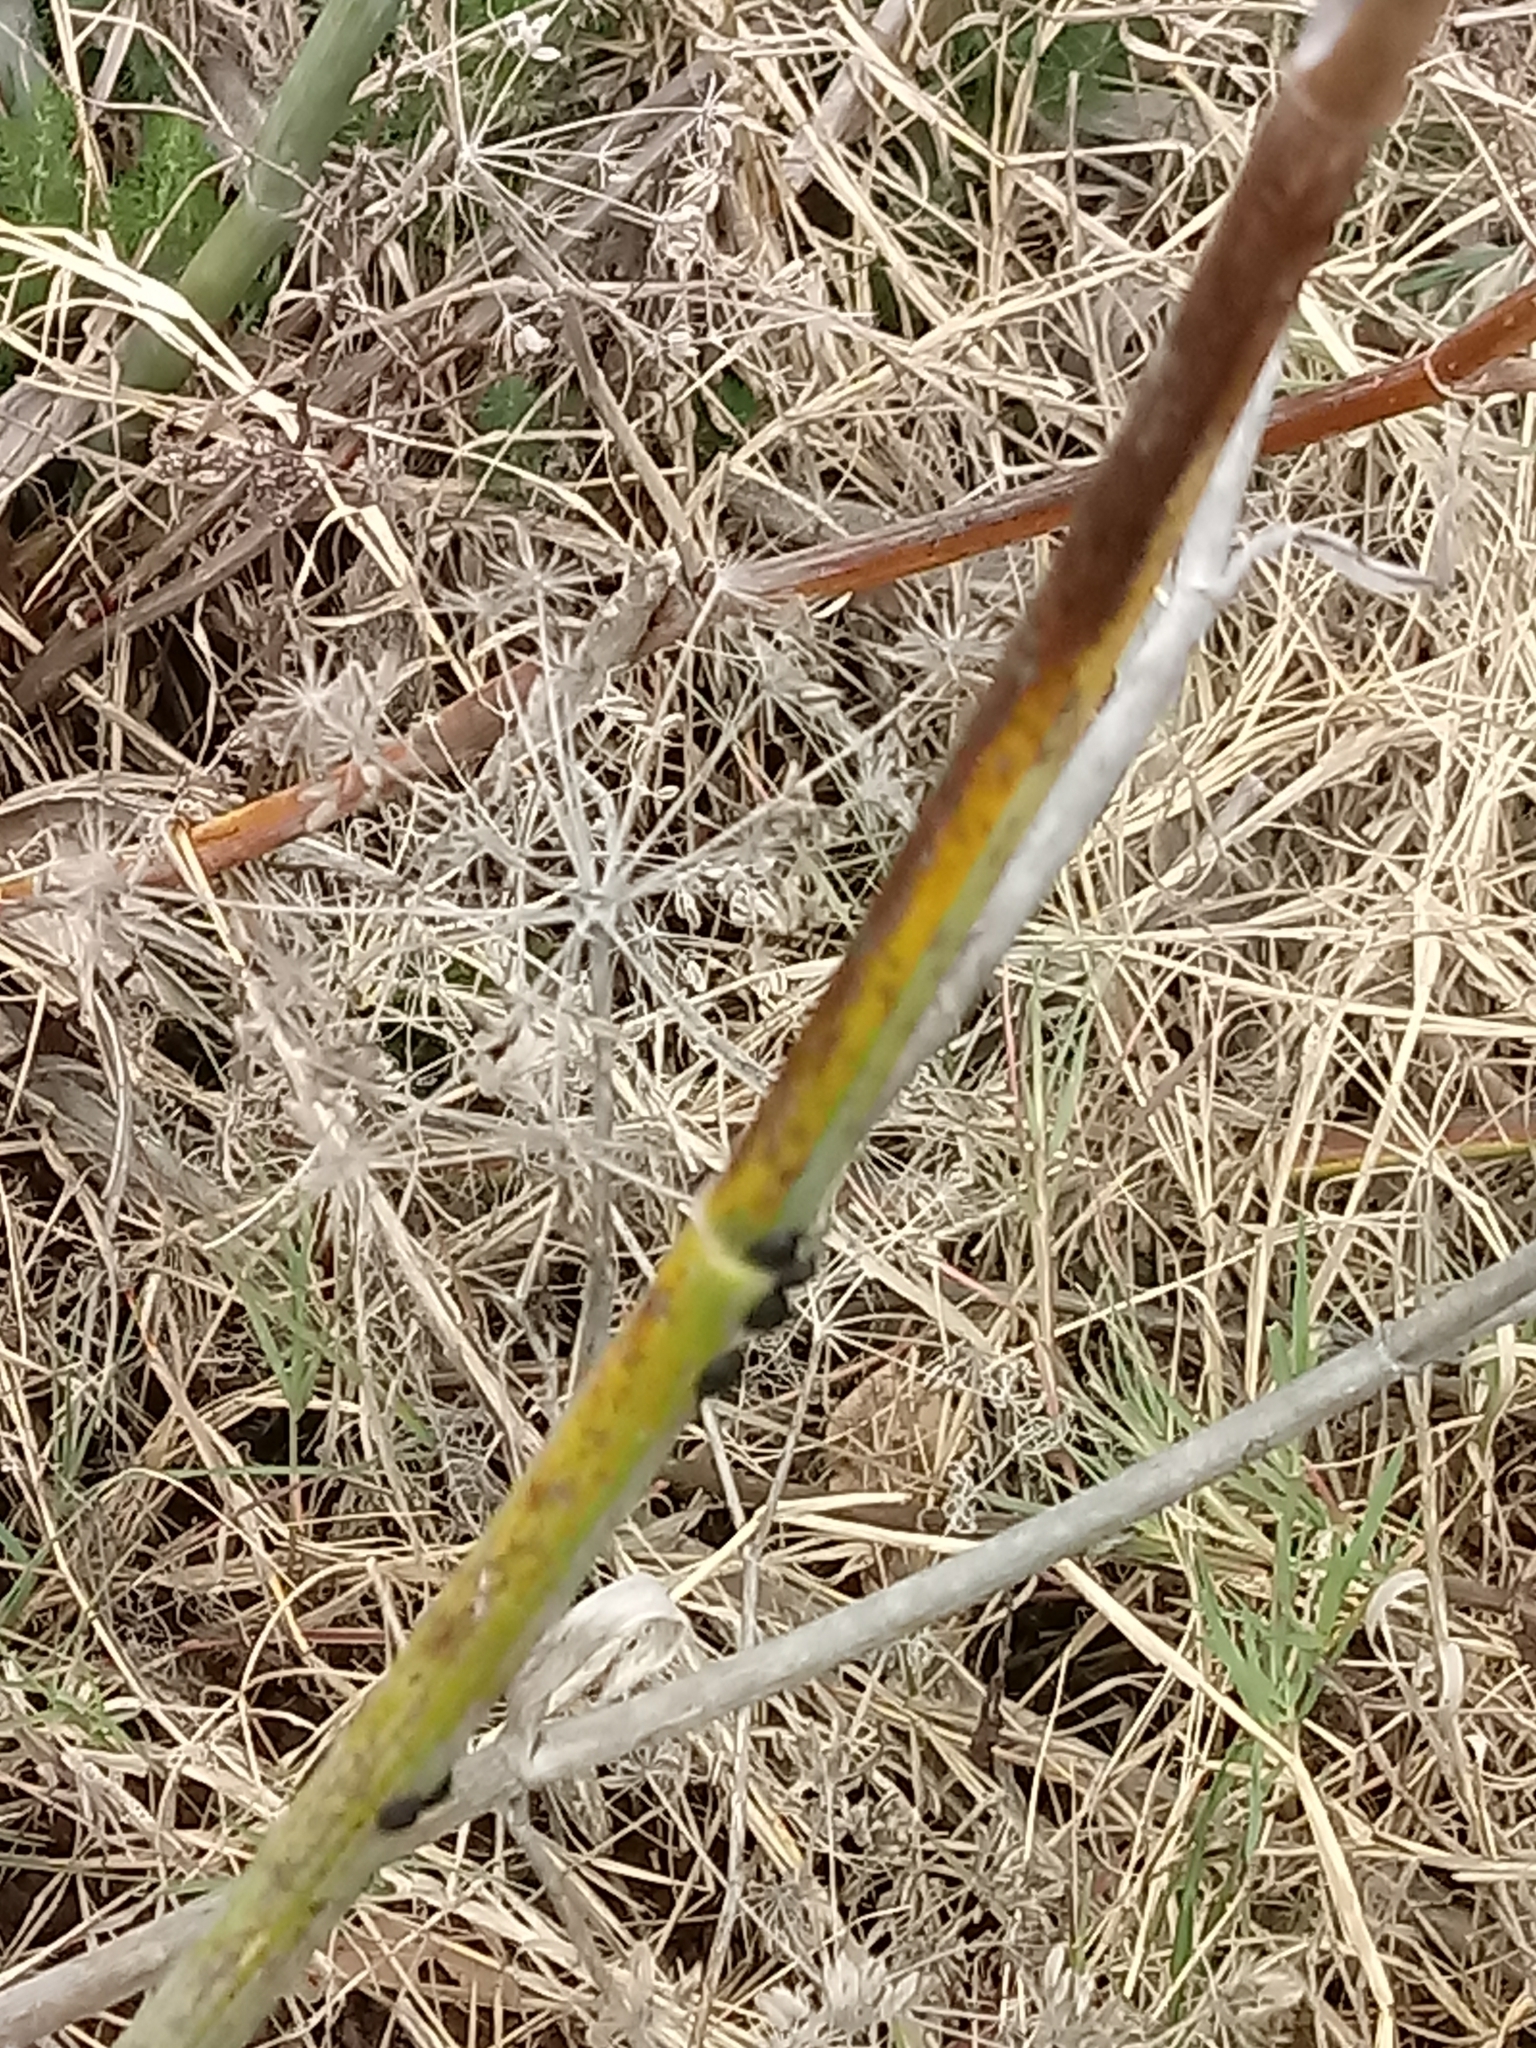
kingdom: Plantae
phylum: Tracheophyta
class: Magnoliopsida
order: Apiales
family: Apiaceae
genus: Foeniculum
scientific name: Foeniculum vulgare
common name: Fennel
